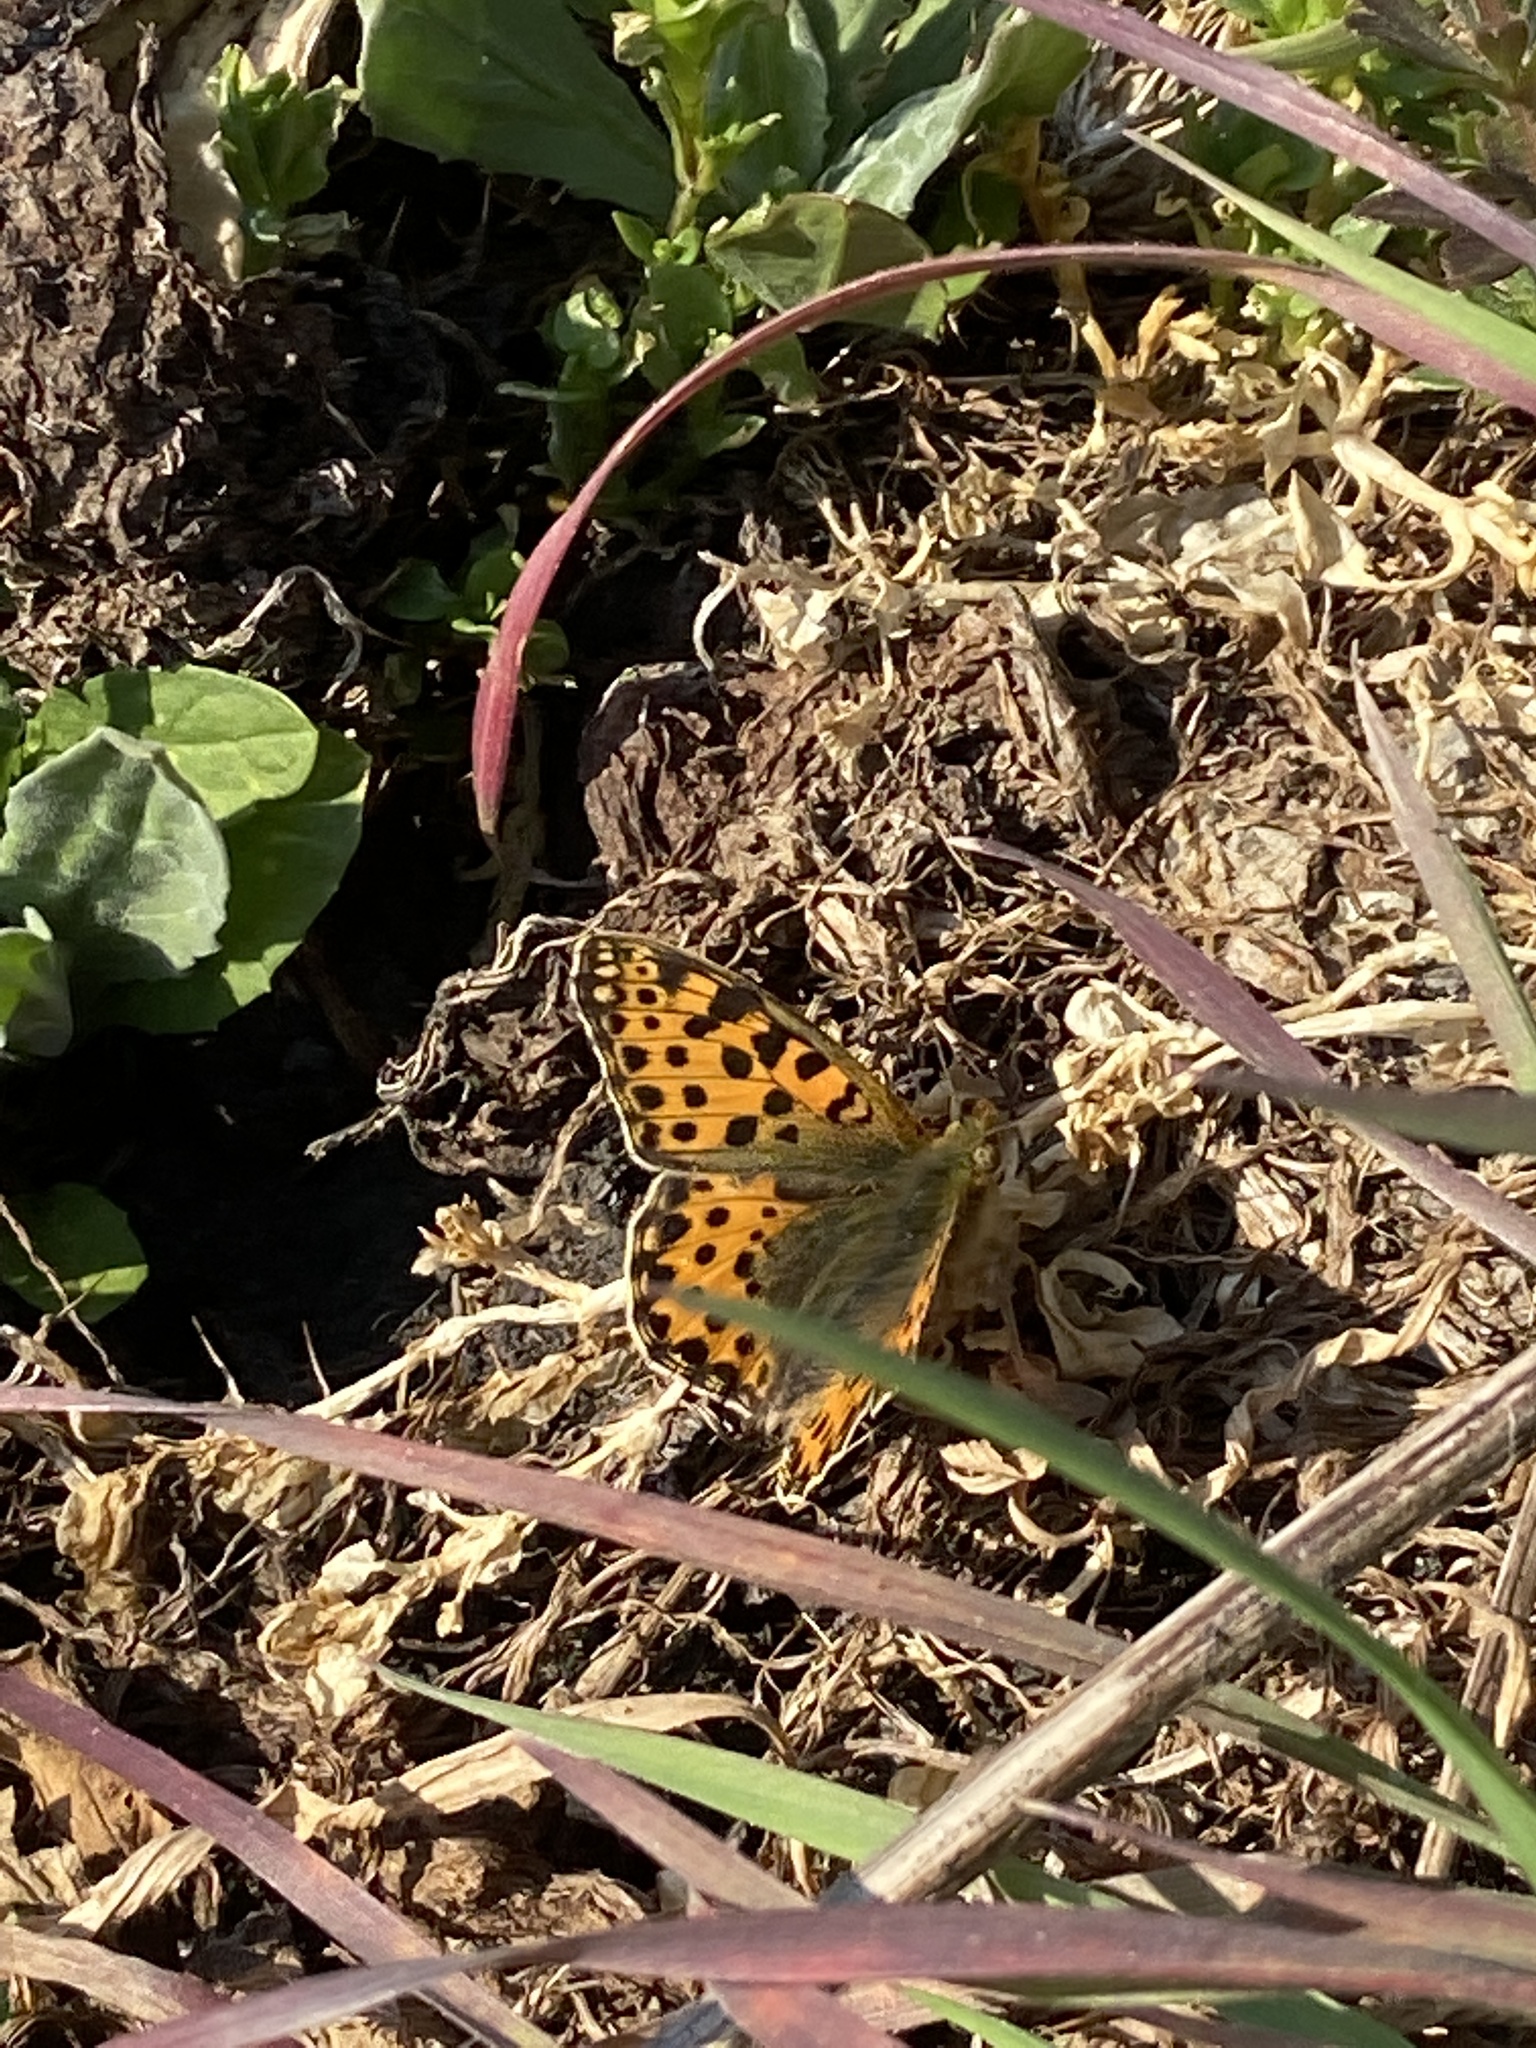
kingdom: Animalia
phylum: Arthropoda
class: Insecta
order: Lepidoptera
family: Nymphalidae
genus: Issoria
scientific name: Issoria lathonia
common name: Queen of spain fritillary
